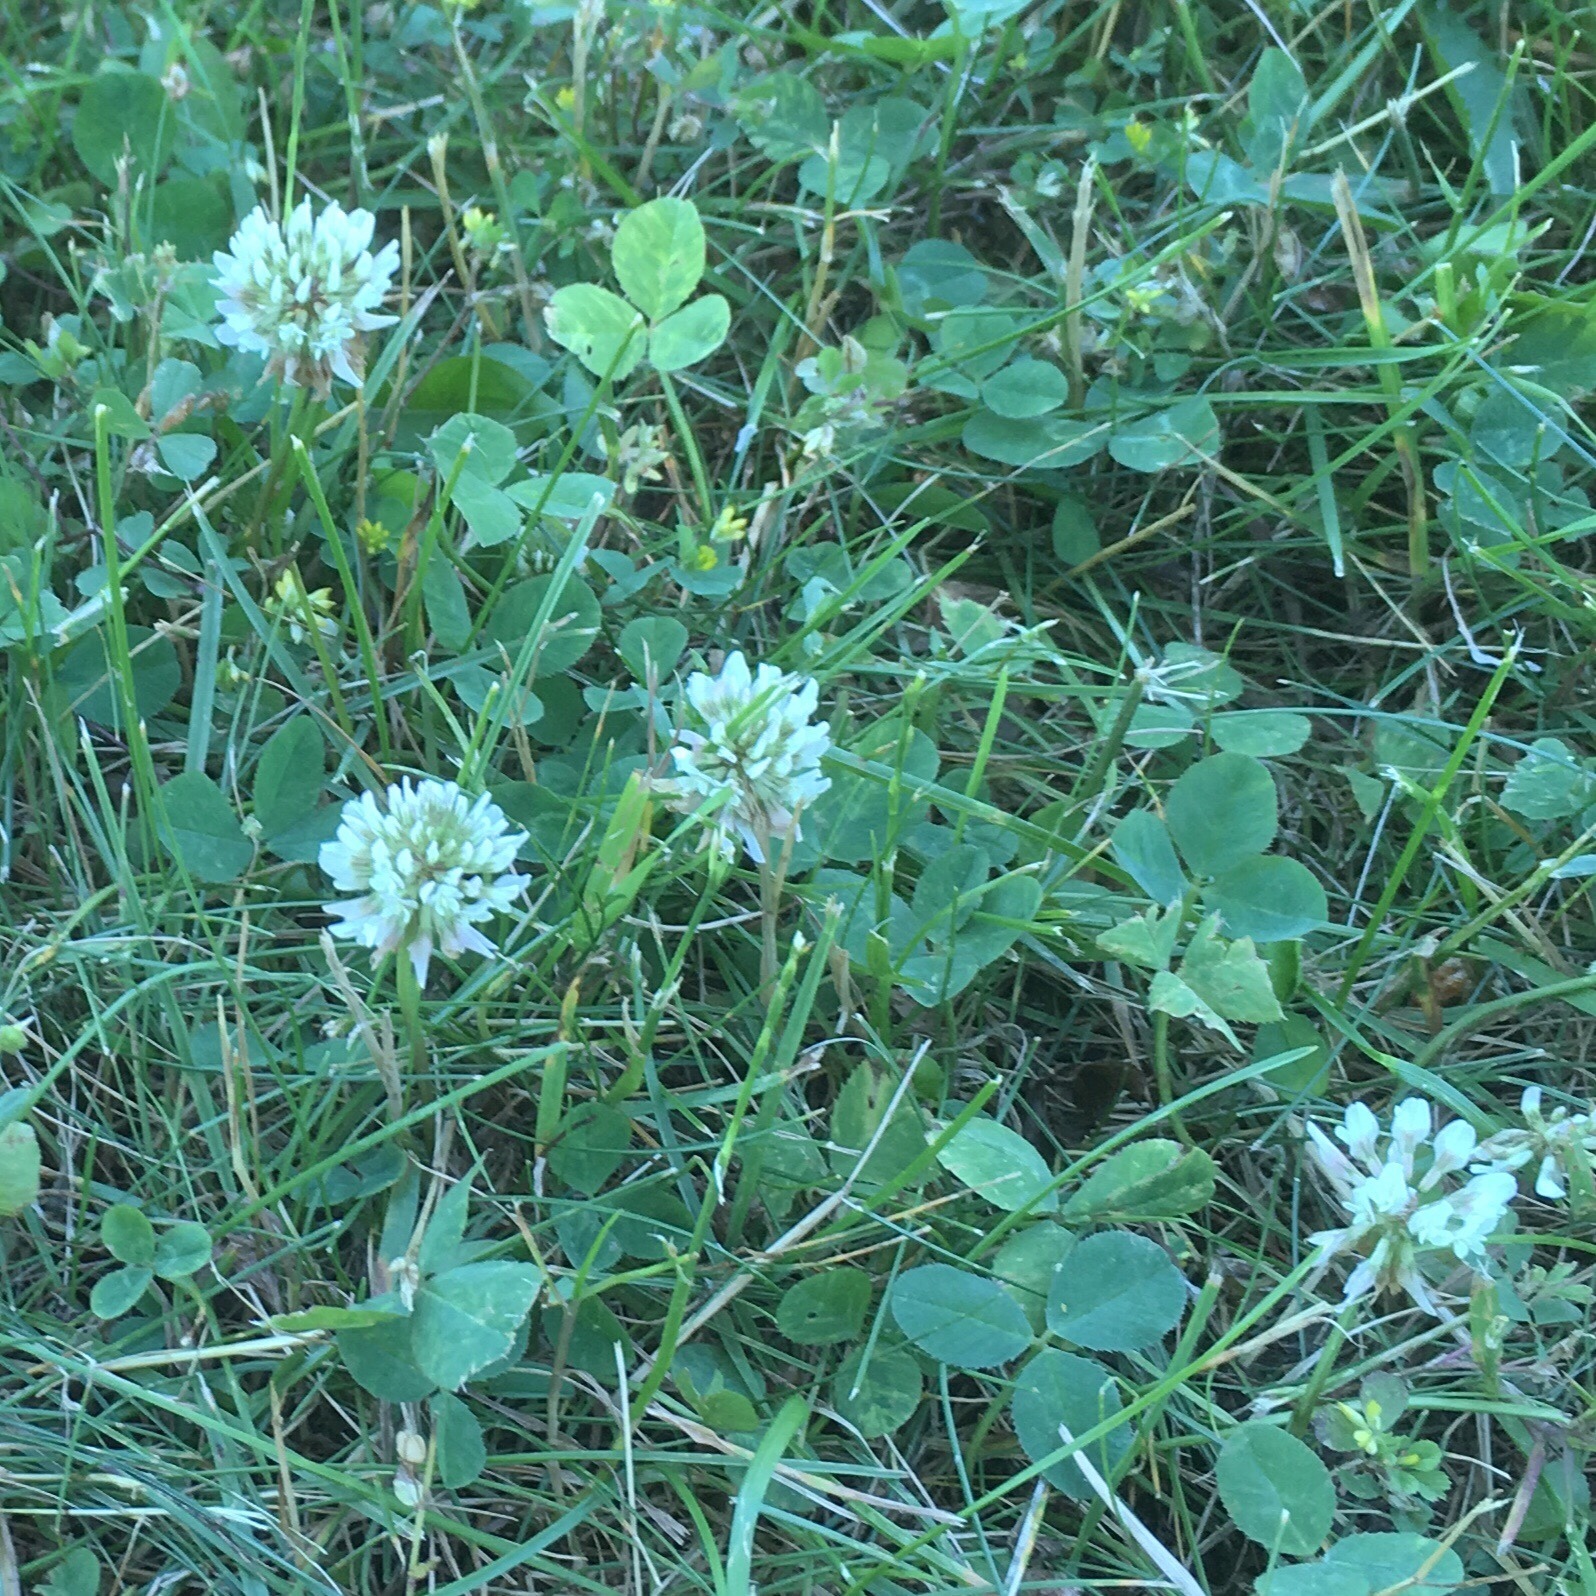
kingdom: Plantae
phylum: Tracheophyta
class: Magnoliopsida
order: Fabales
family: Fabaceae
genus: Trifolium
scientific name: Trifolium repens
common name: White clover
